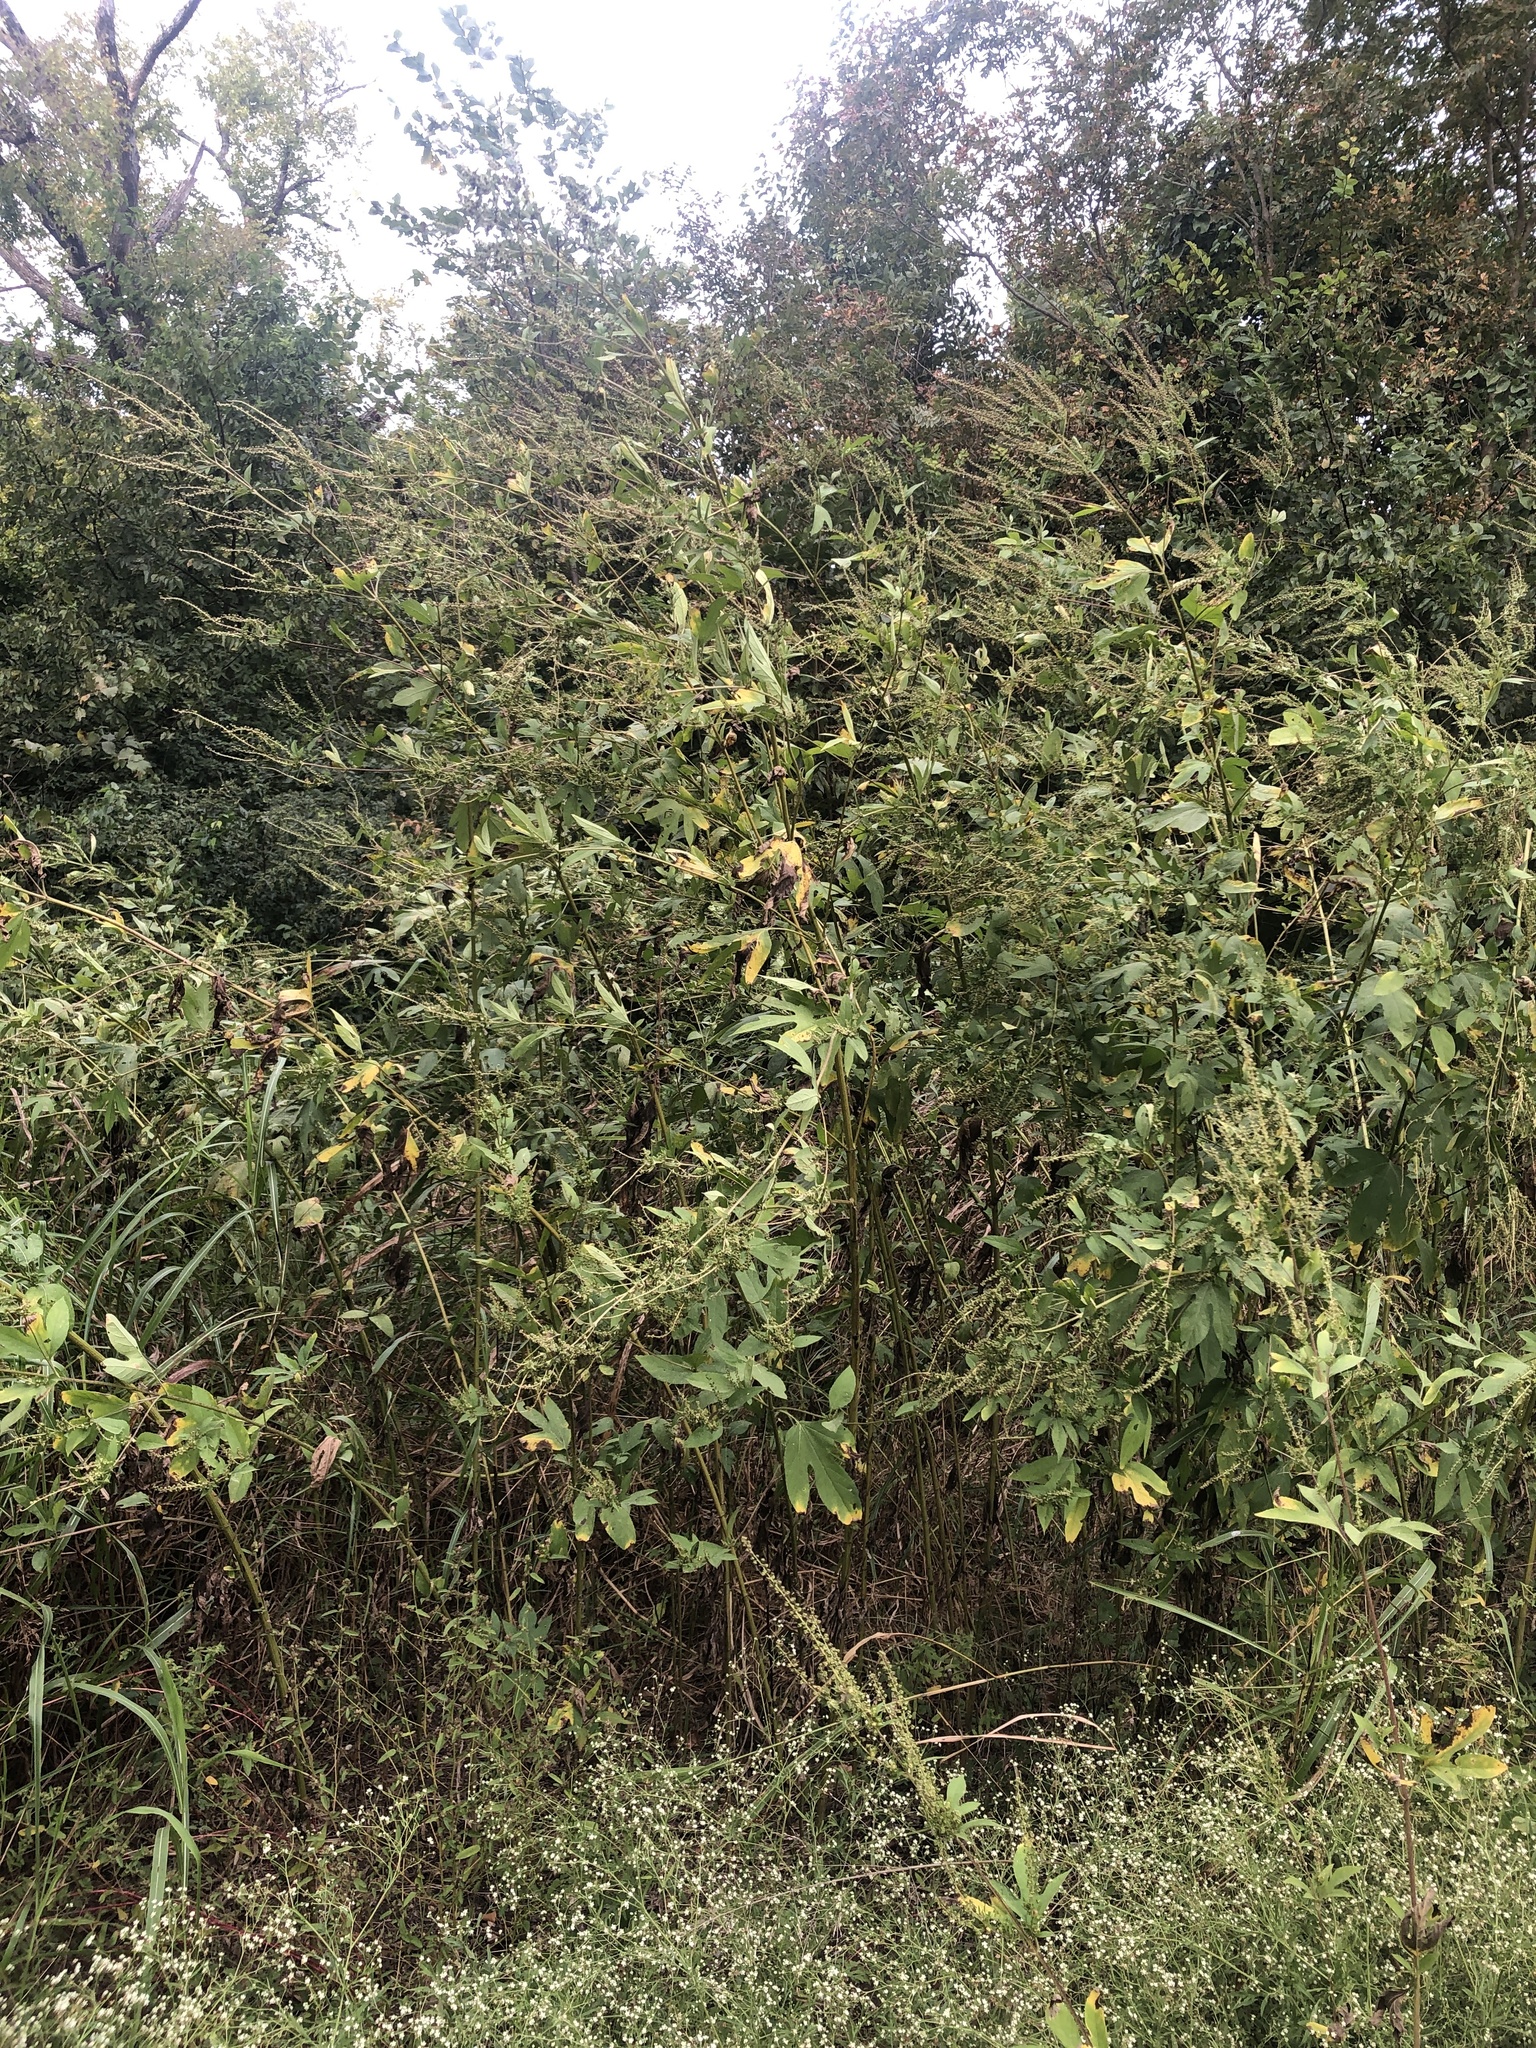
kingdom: Plantae
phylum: Tracheophyta
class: Magnoliopsida
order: Asterales
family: Asteraceae
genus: Ambrosia
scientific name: Ambrosia trifida
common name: Giant ragweed
